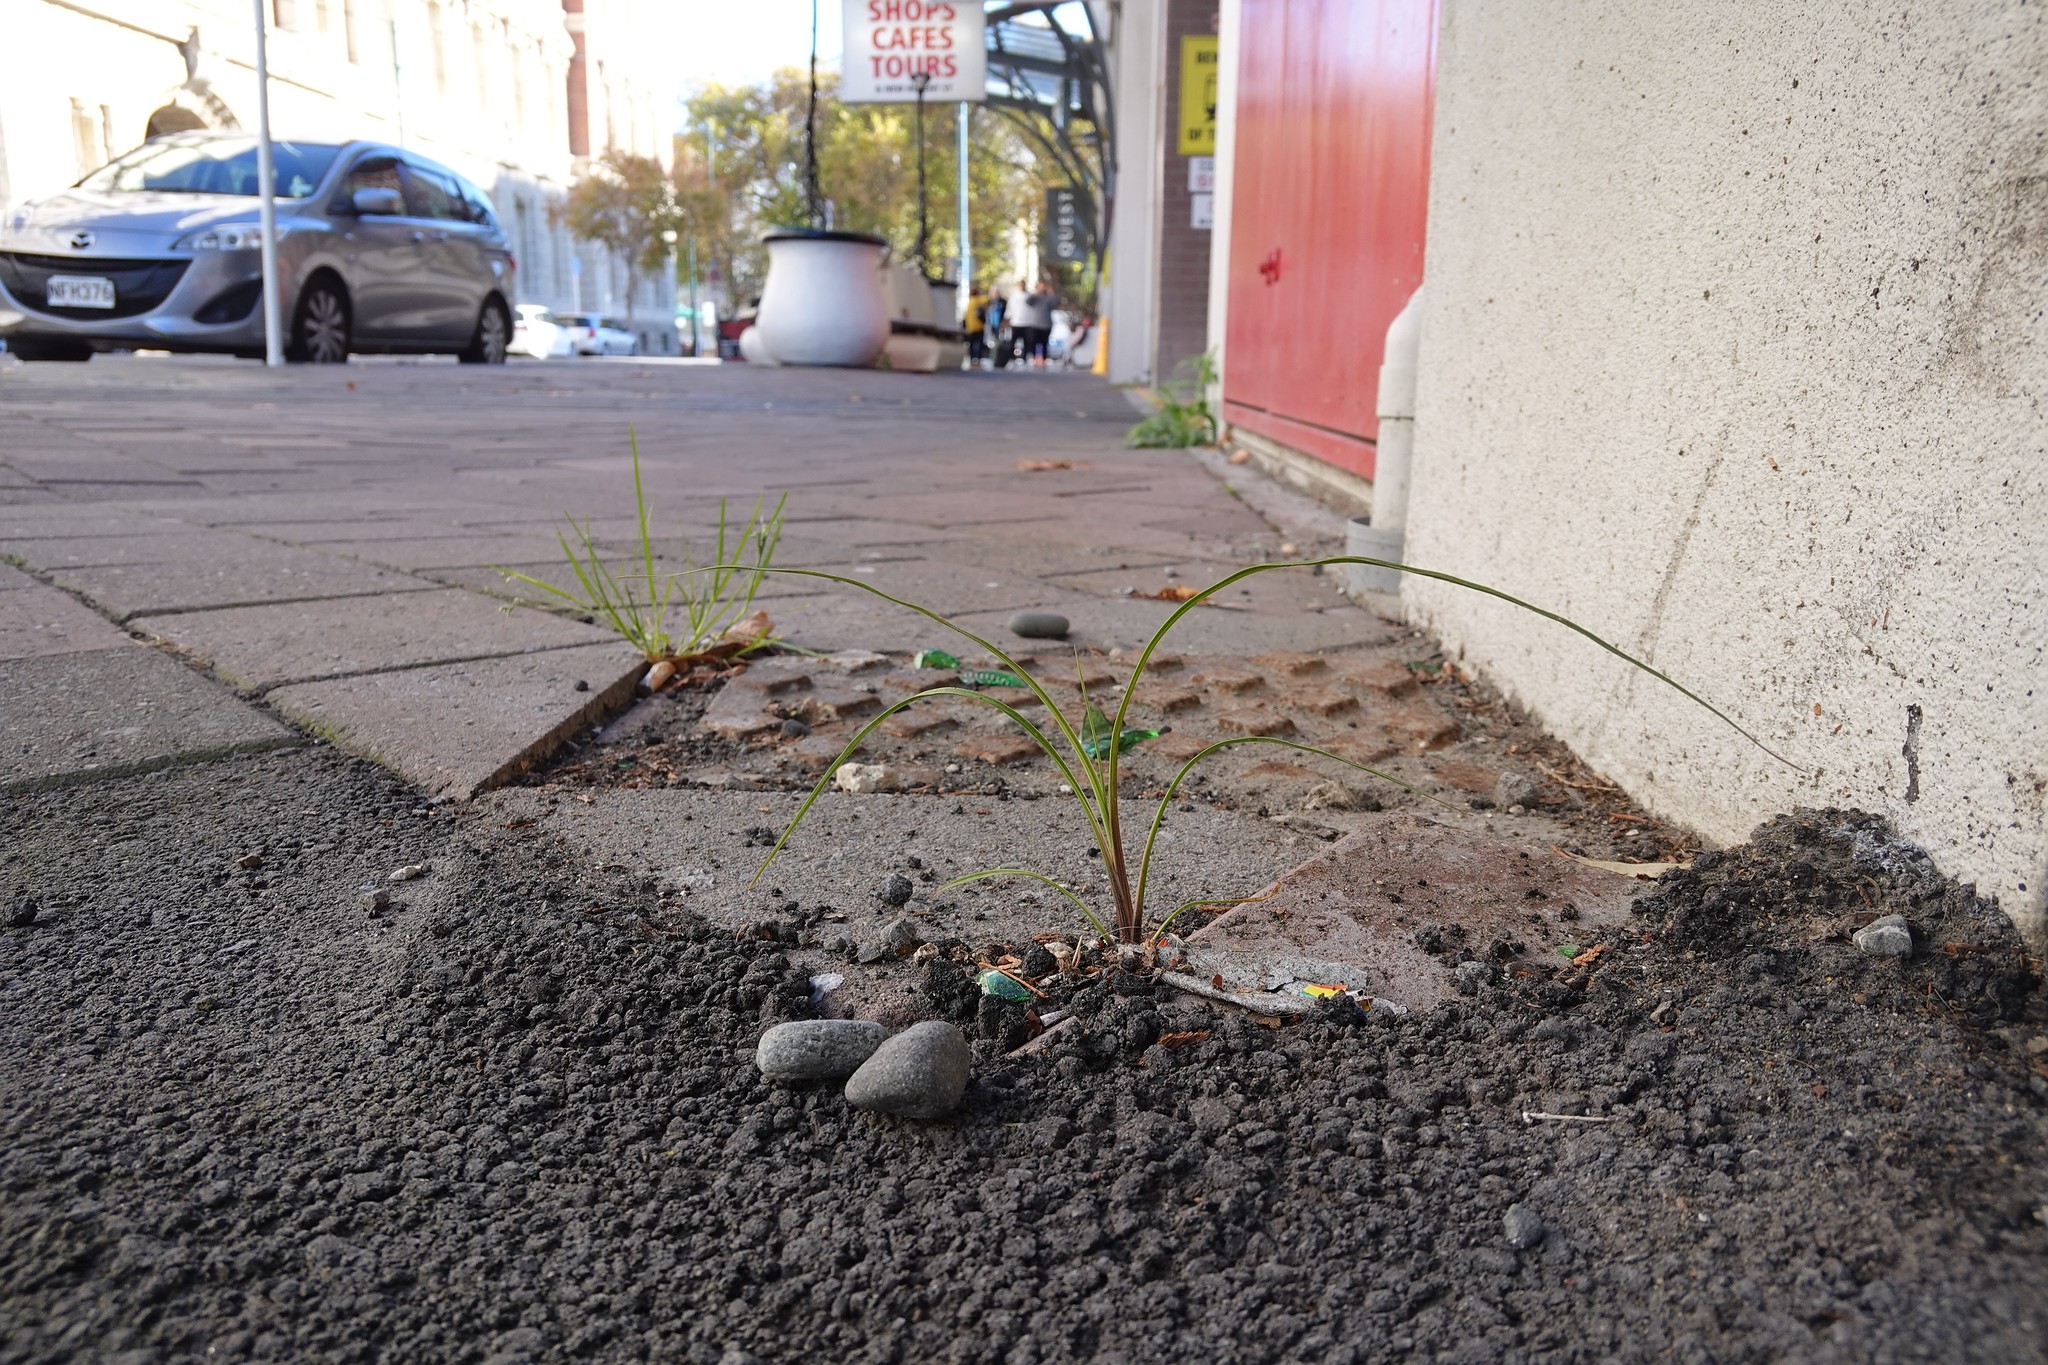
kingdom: Plantae
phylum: Tracheophyta
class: Liliopsida
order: Asparagales
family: Asparagaceae
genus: Cordyline
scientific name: Cordyline australis
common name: Cabbage-palm
